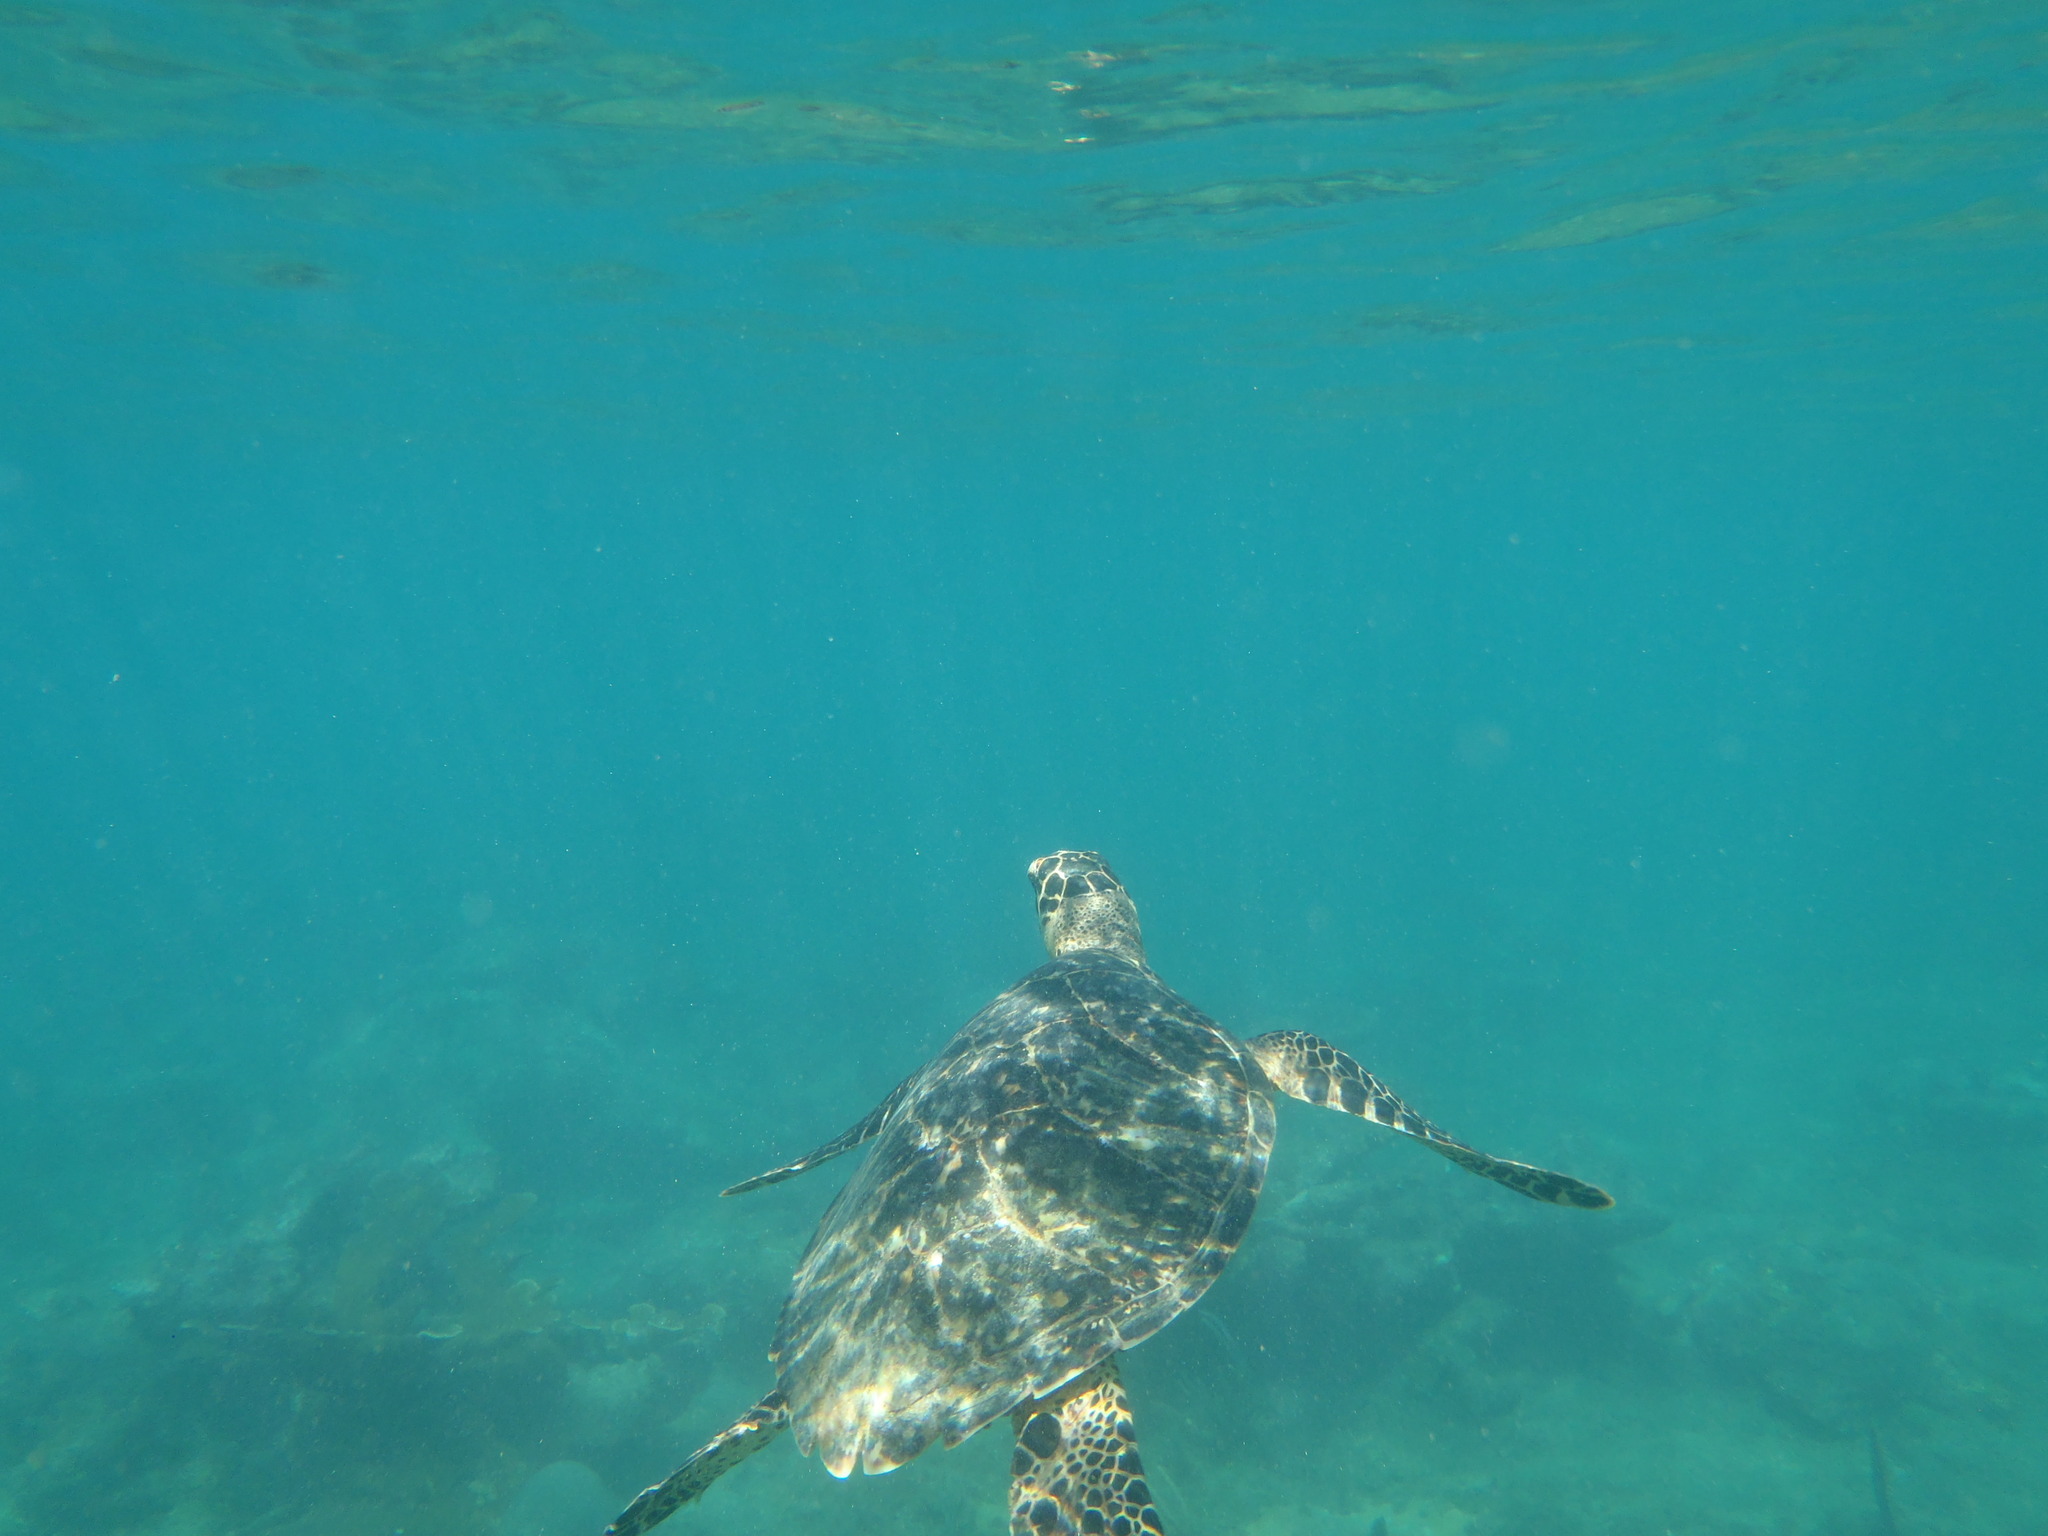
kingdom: Animalia
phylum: Chordata
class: Testudines
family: Cheloniidae
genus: Eretmochelys
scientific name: Eretmochelys imbricata
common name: Hawksbill turtle
